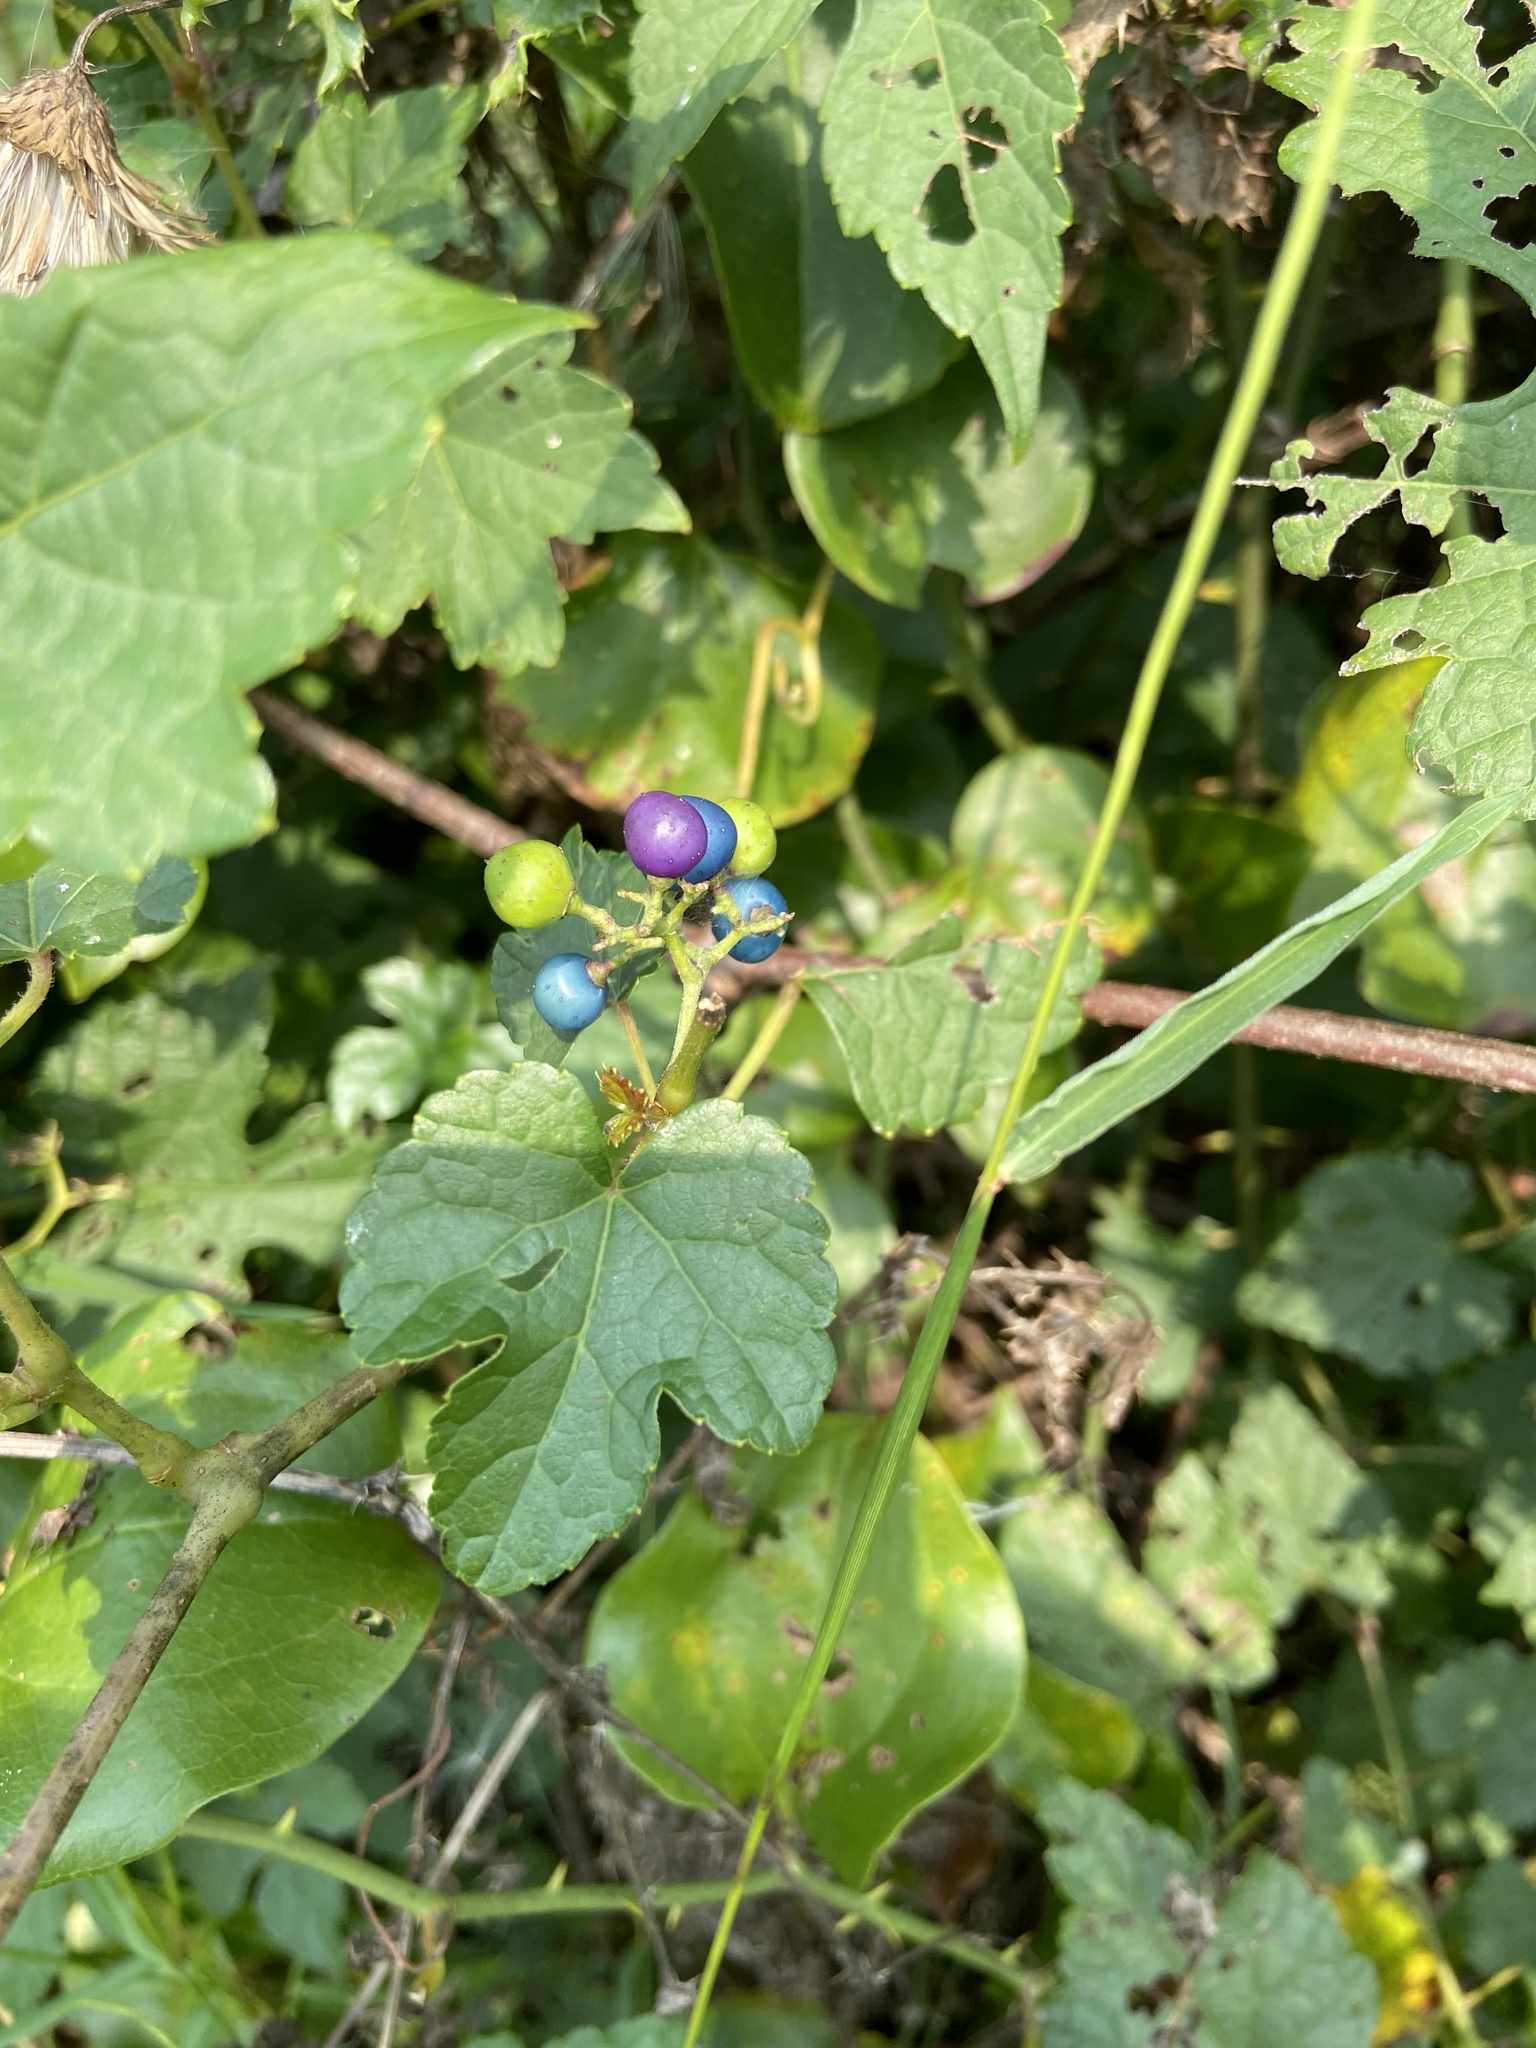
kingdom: Plantae
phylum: Tracheophyta
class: Magnoliopsida
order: Vitales
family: Vitaceae
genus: Ampelopsis
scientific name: Ampelopsis glandulosa
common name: Amur peppervine
